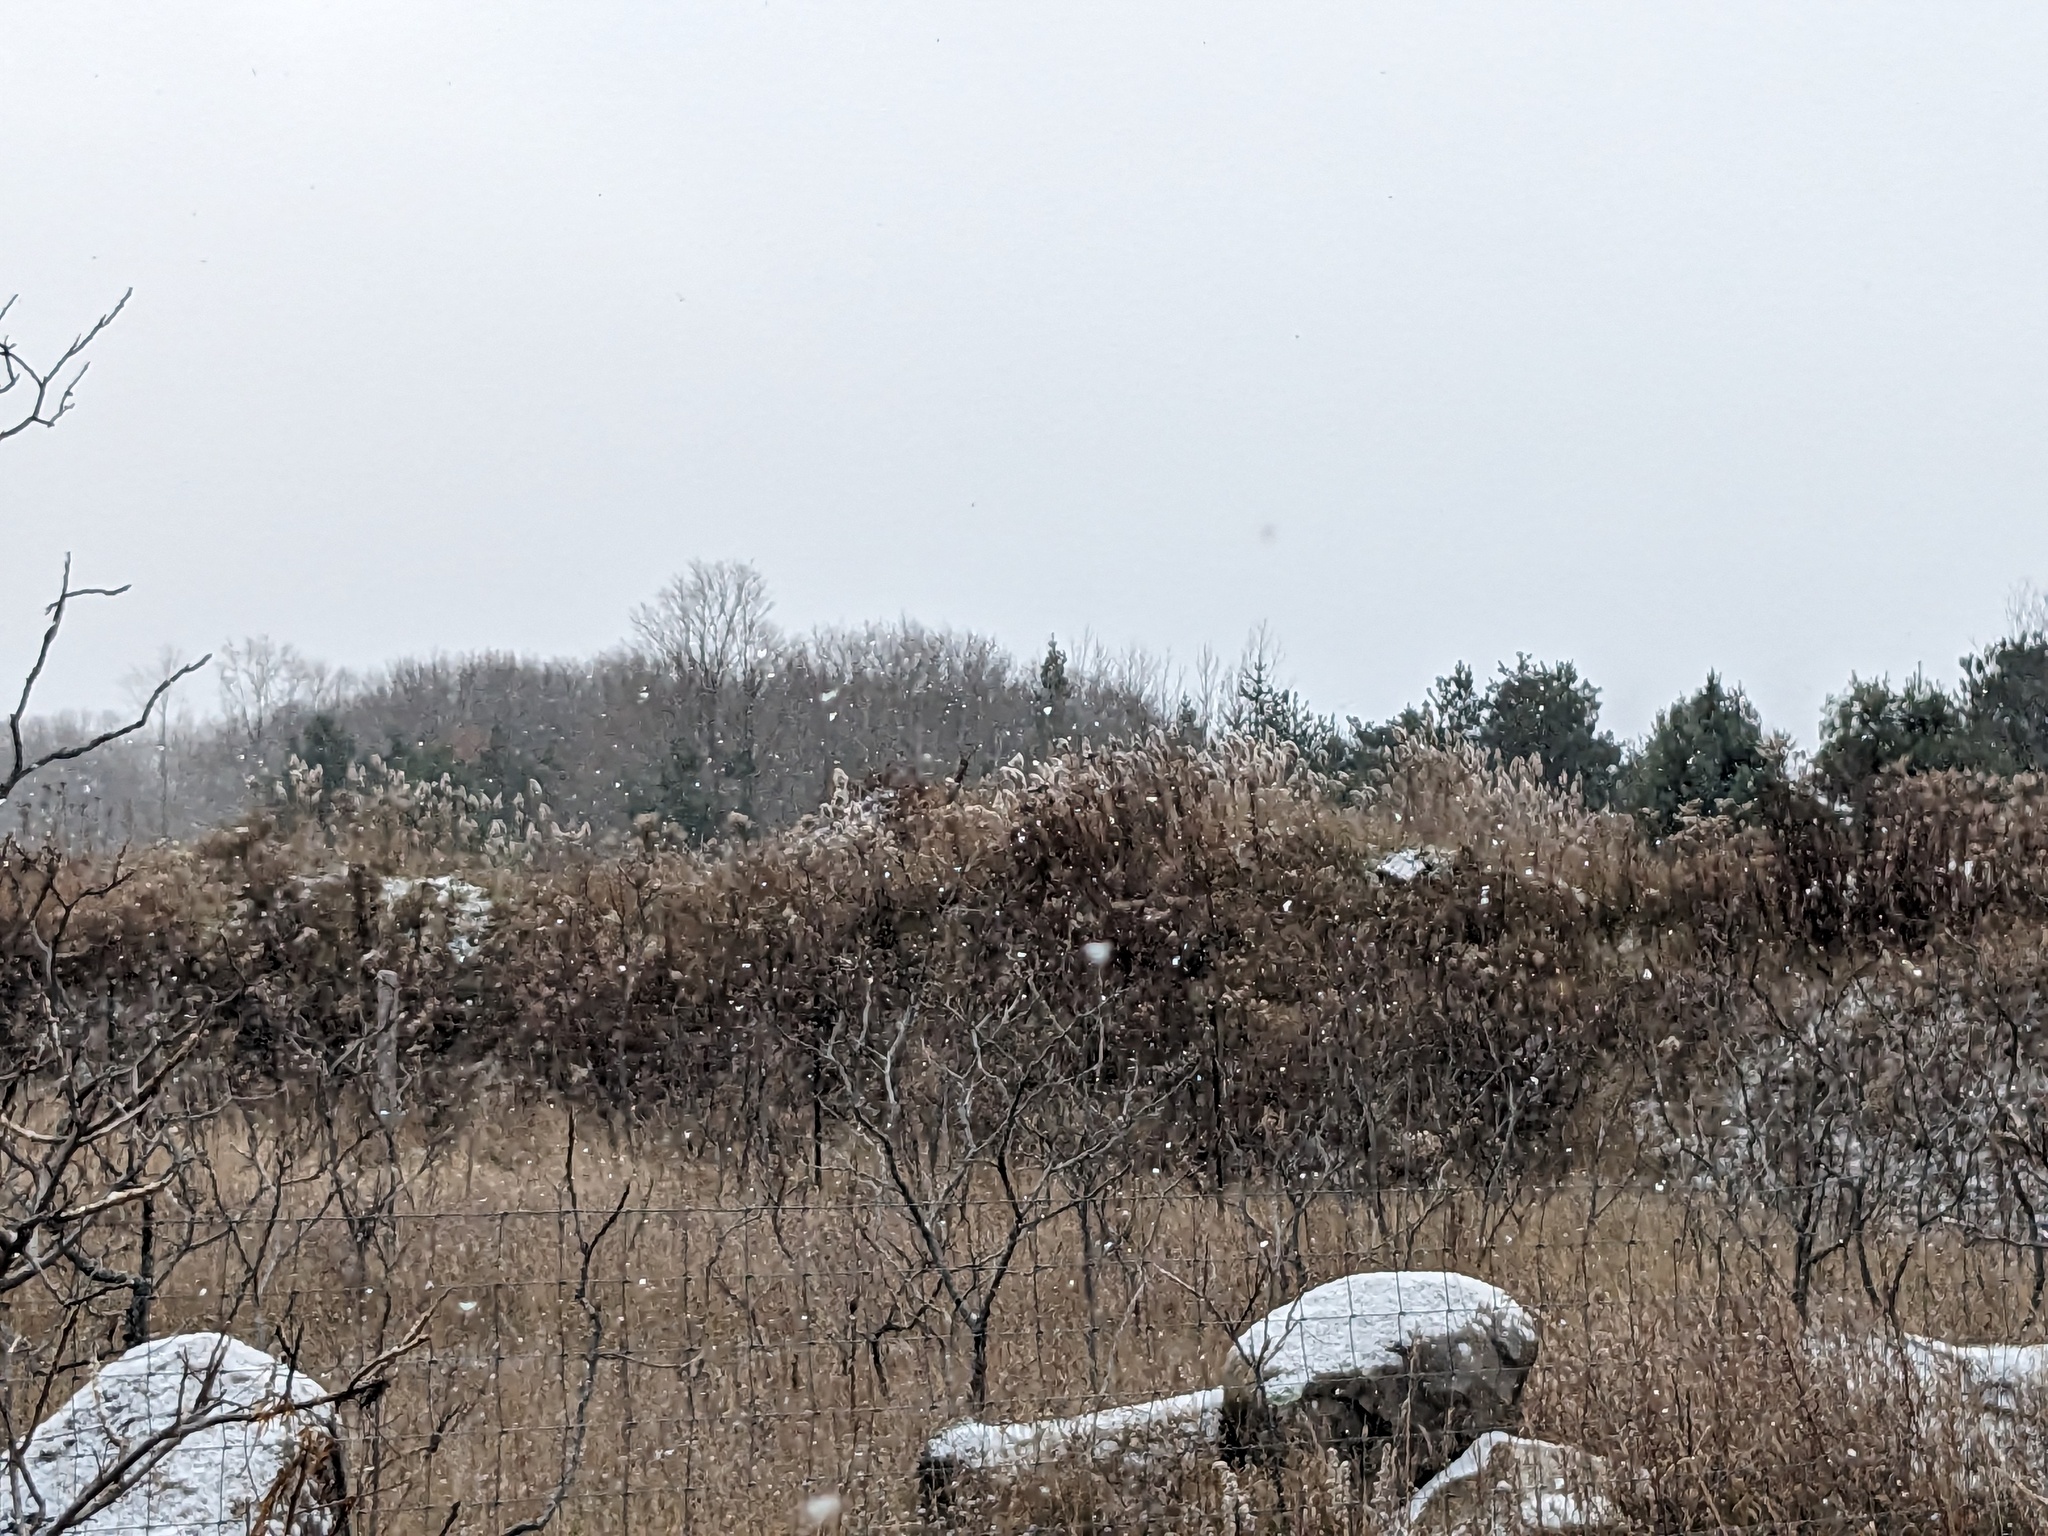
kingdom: Plantae
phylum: Tracheophyta
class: Liliopsida
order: Poales
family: Poaceae
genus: Phragmites
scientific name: Phragmites australis
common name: Common reed
